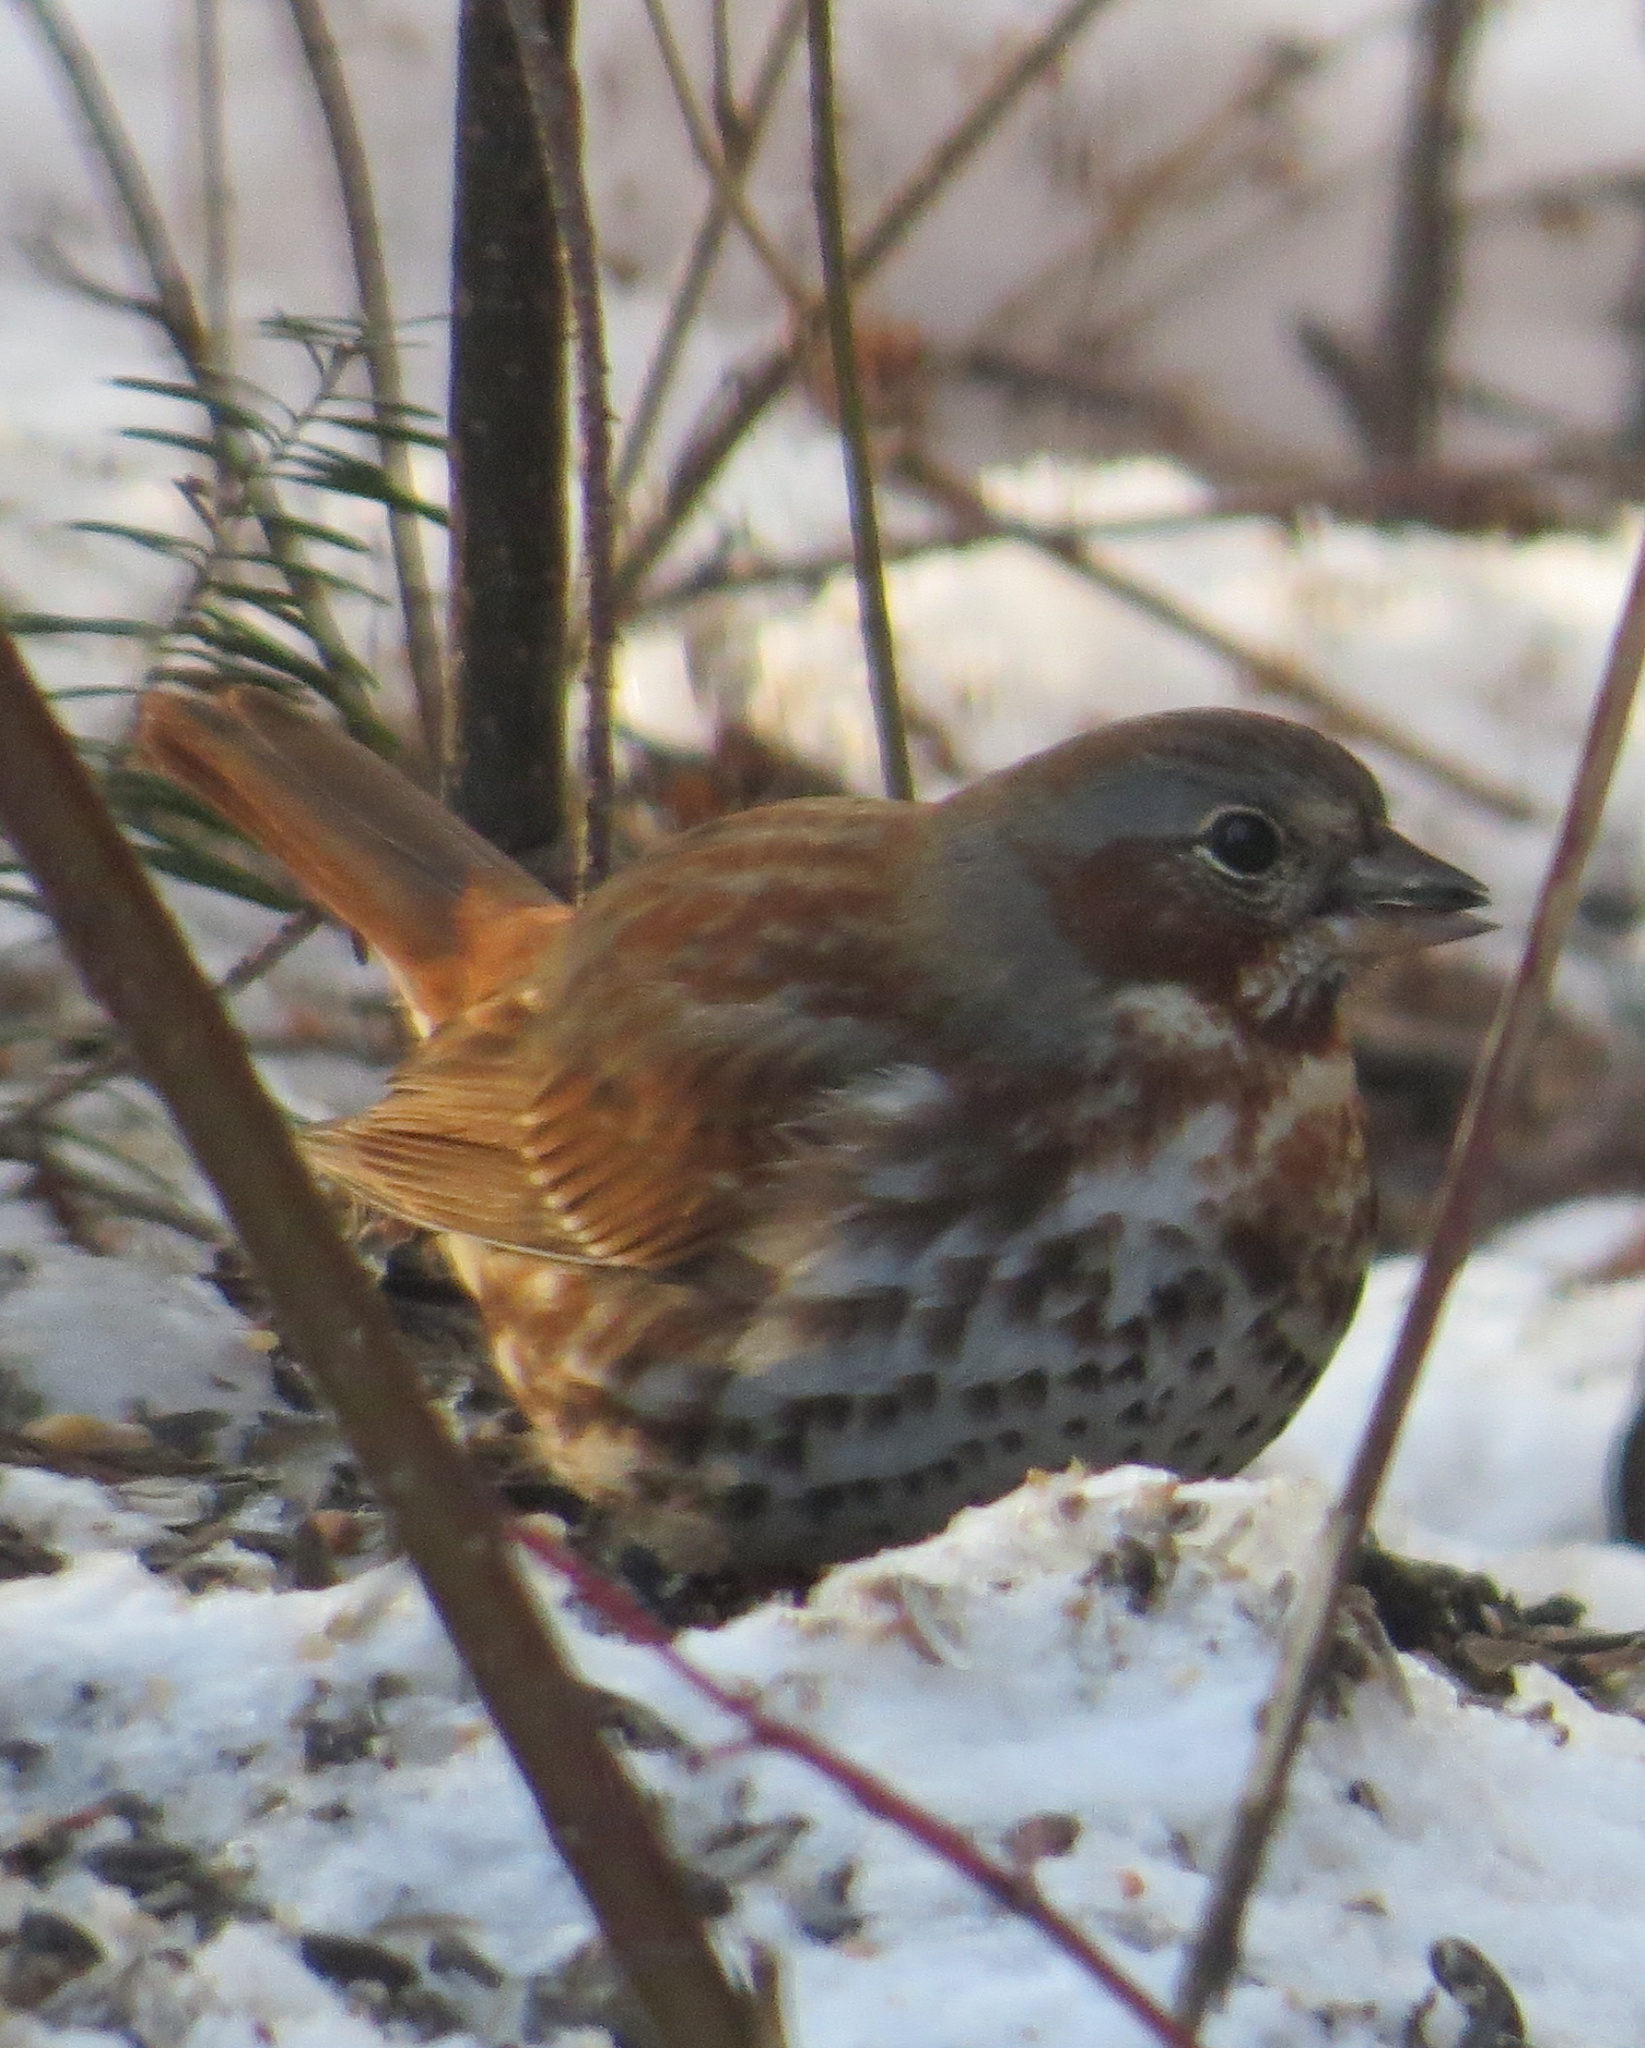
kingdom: Animalia
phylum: Chordata
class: Aves
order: Passeriformes
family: Passerellidae
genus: Passerella
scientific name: Passerella iliaca
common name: Fox sparrow
